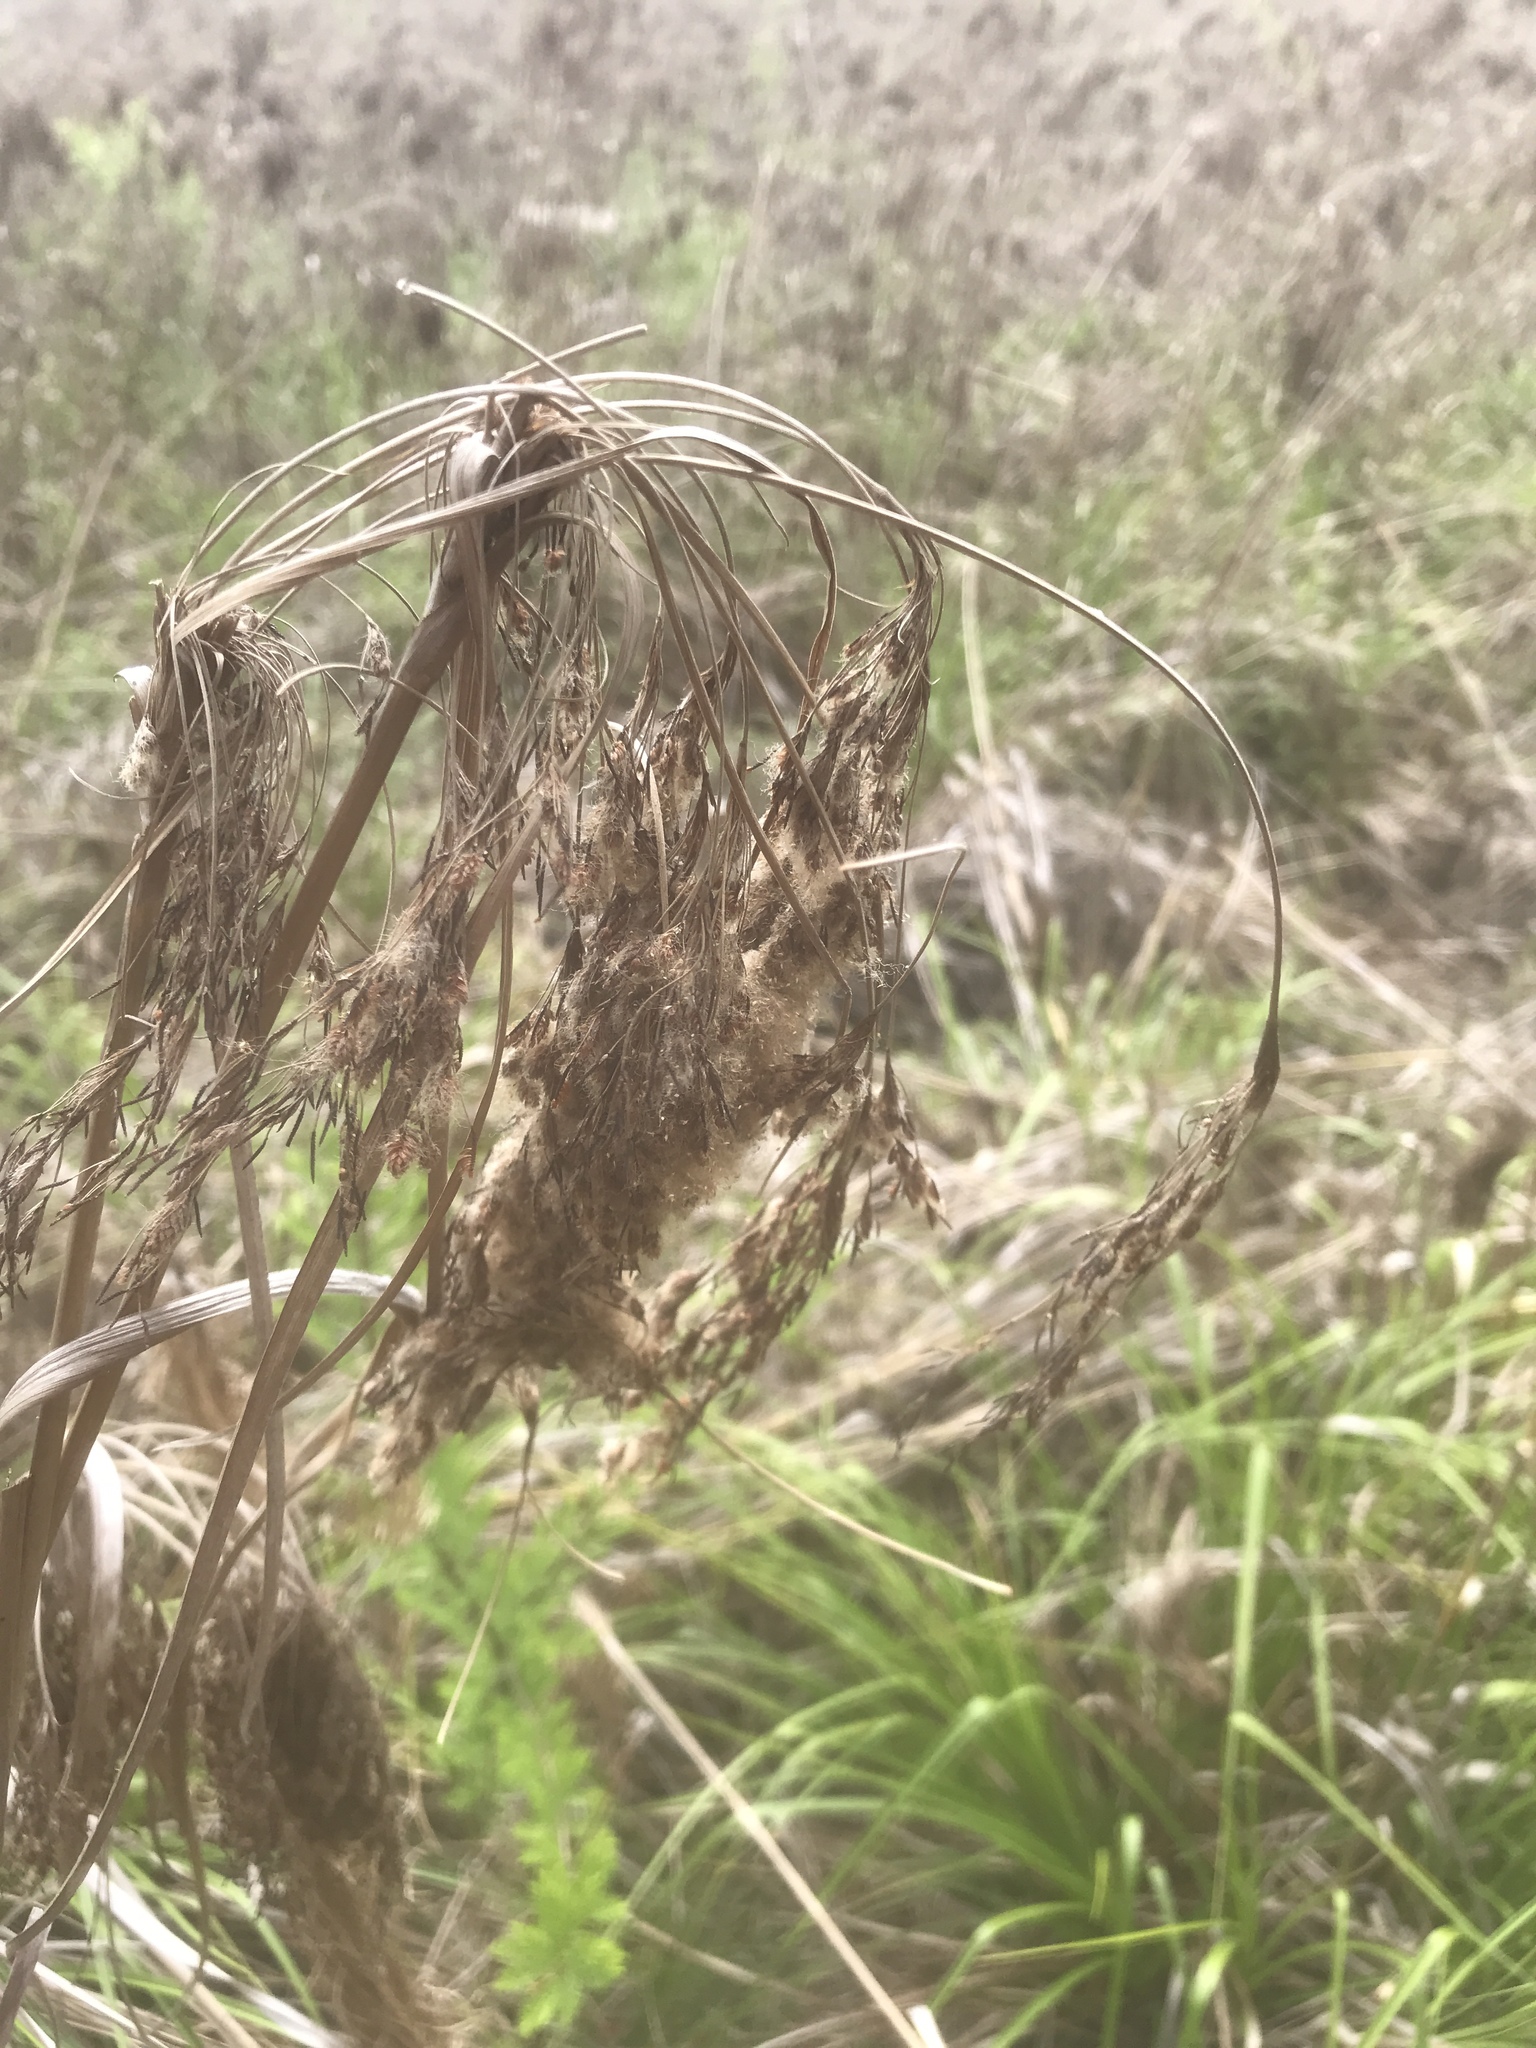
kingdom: Plantae
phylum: Tracheophyta
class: Liliopsida
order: Poales
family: Cyperaceae
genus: Scirpus
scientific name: Scirpus cyperinus
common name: Black-sheathed bulrush
